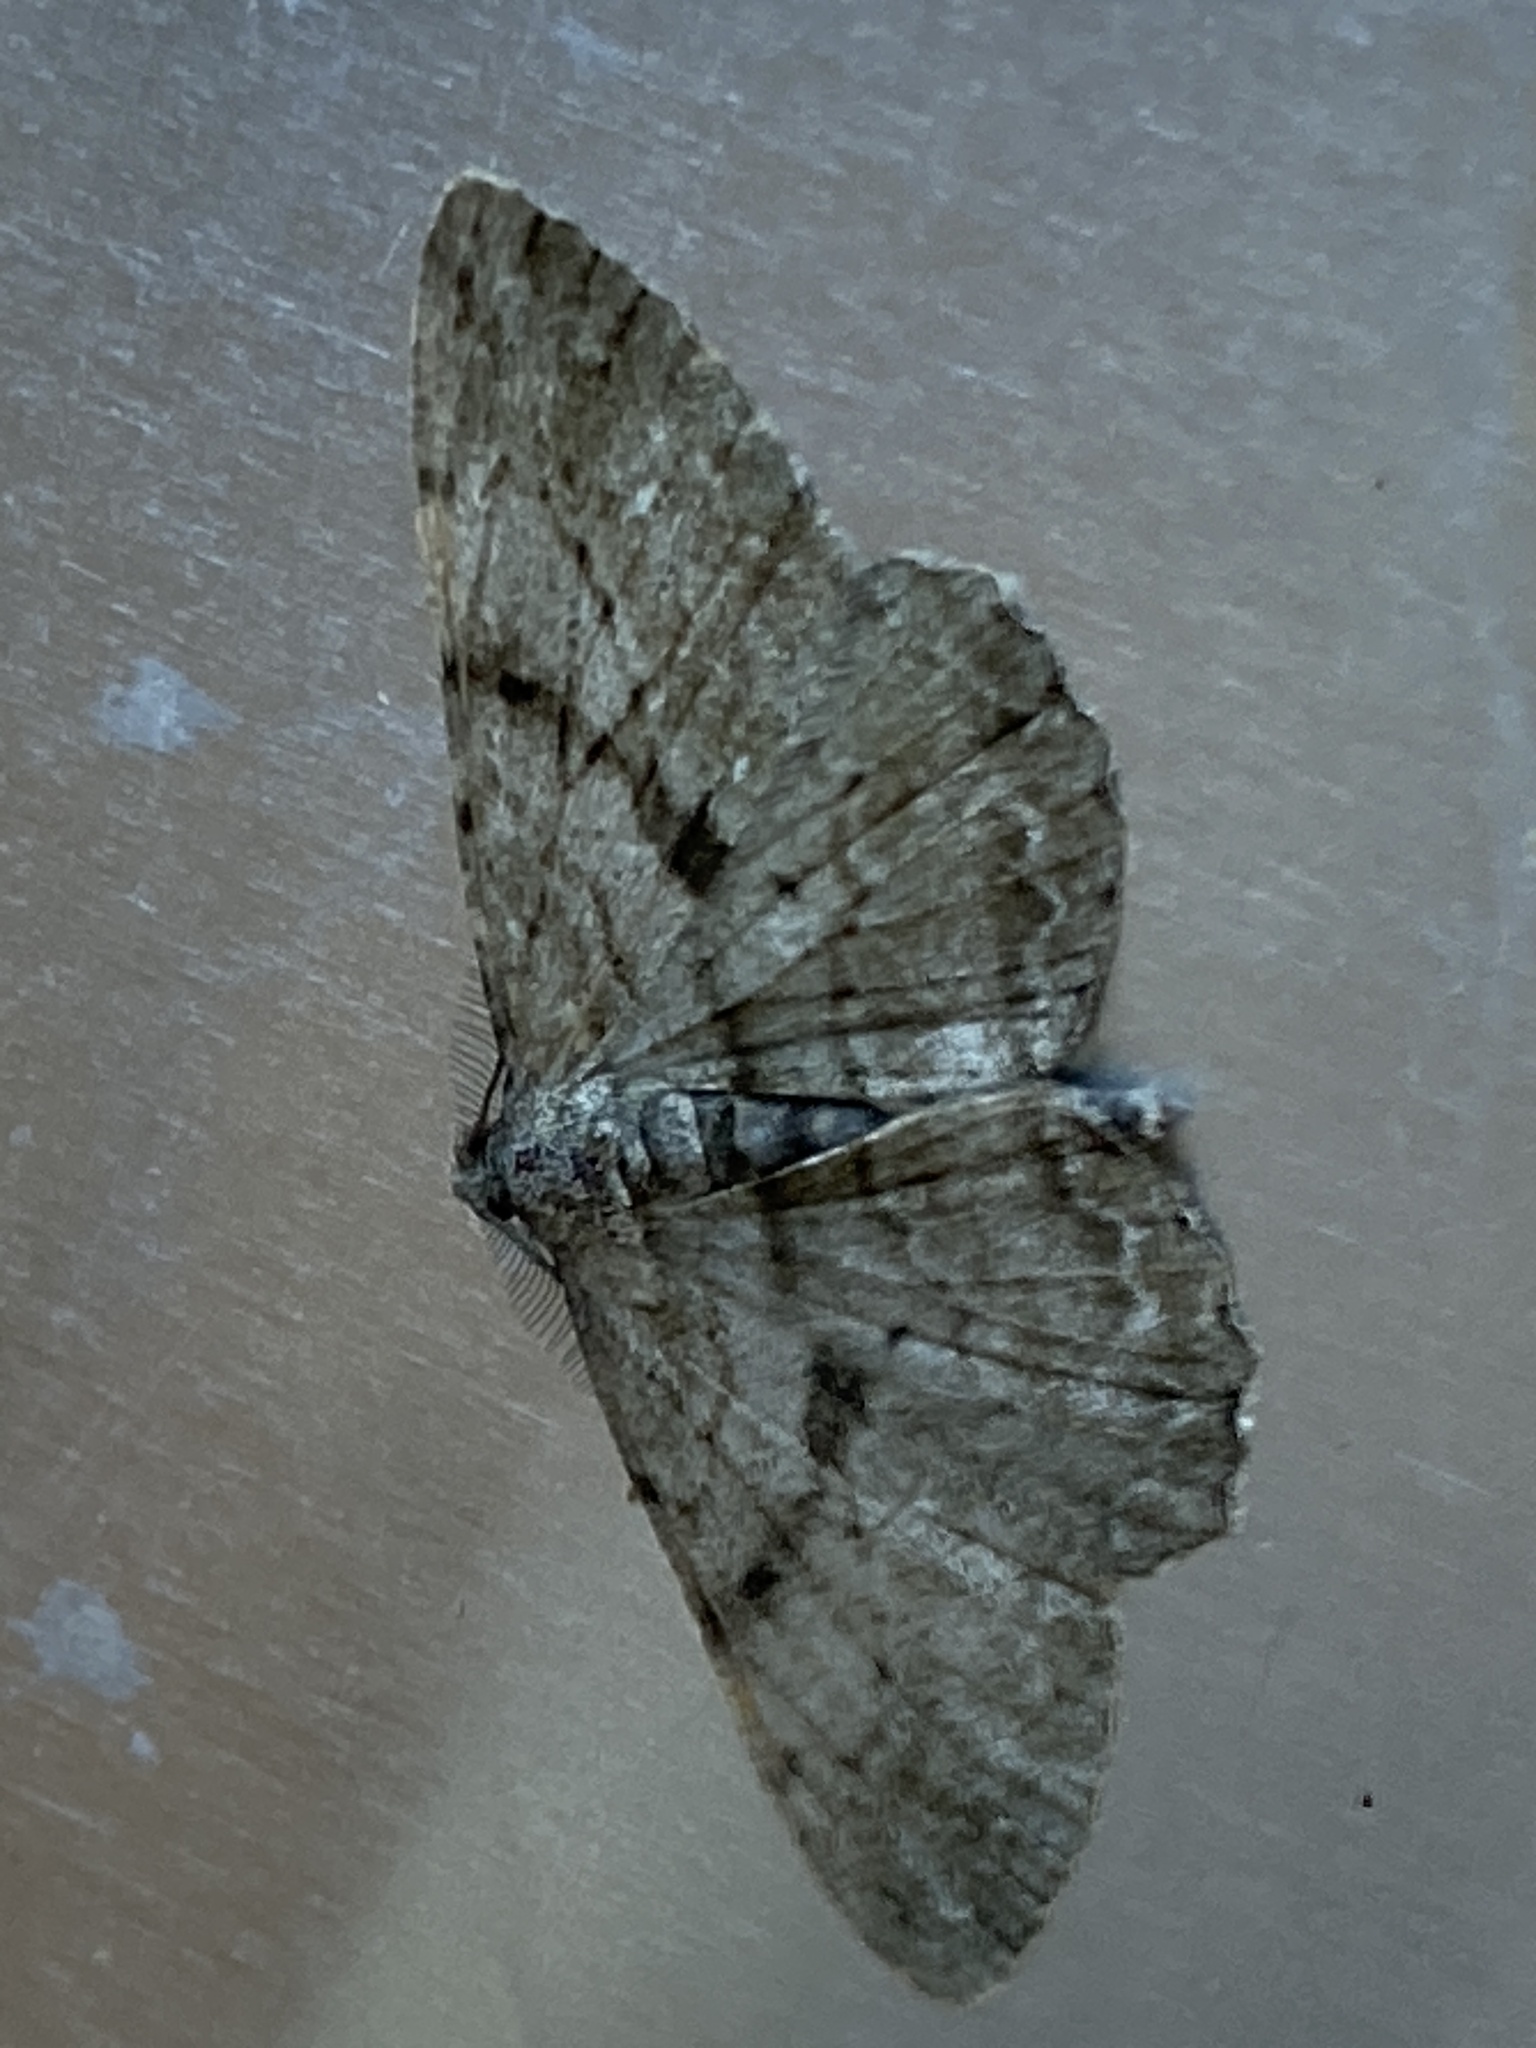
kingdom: Animalia
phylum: Arthropoda
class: Insecta
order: Lepidoptera
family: Geometridae
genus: Peribatodes
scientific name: Peribatodes rhomboidaria
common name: Willow beauty
